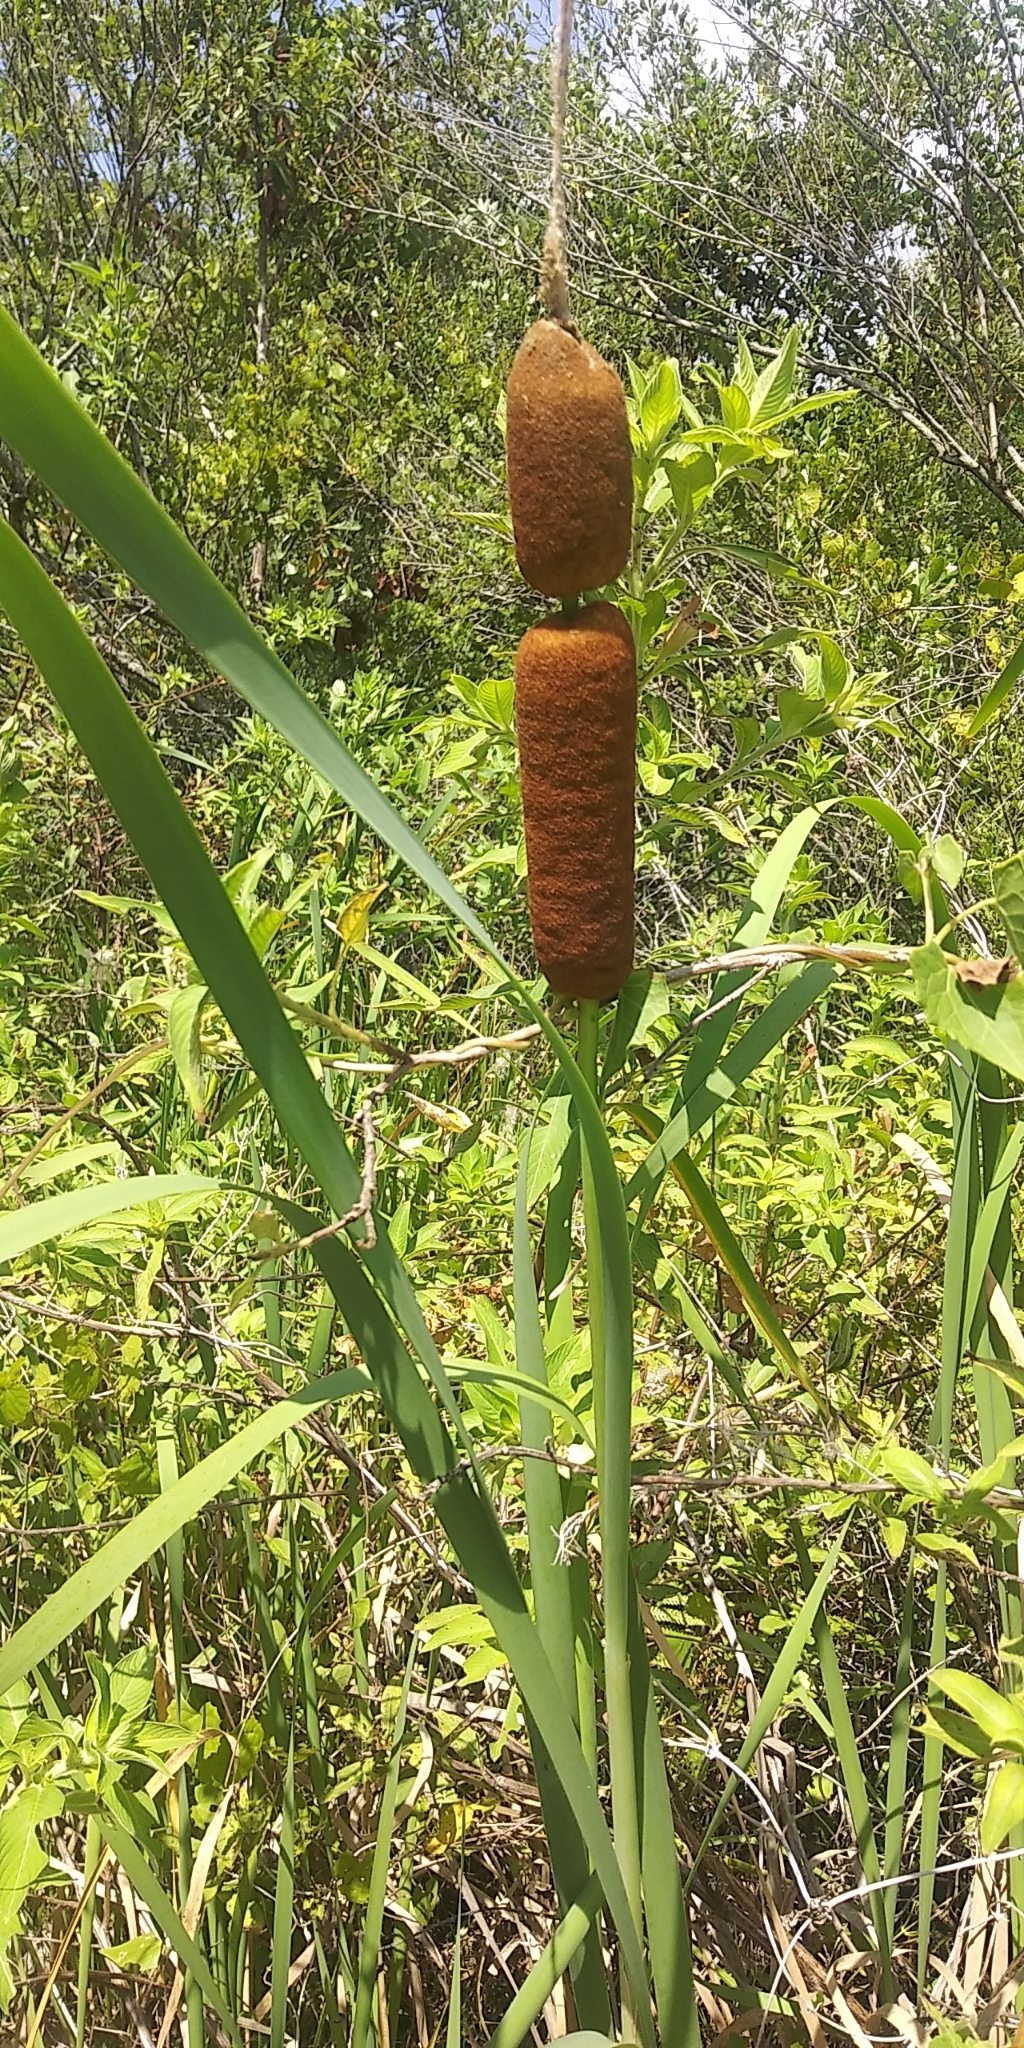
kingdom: Plantae
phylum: Tracheophyta
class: Liliopsida
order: Poales
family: Typhaceae
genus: Typha
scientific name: Typha latifolia
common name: Broadleaf cattail
